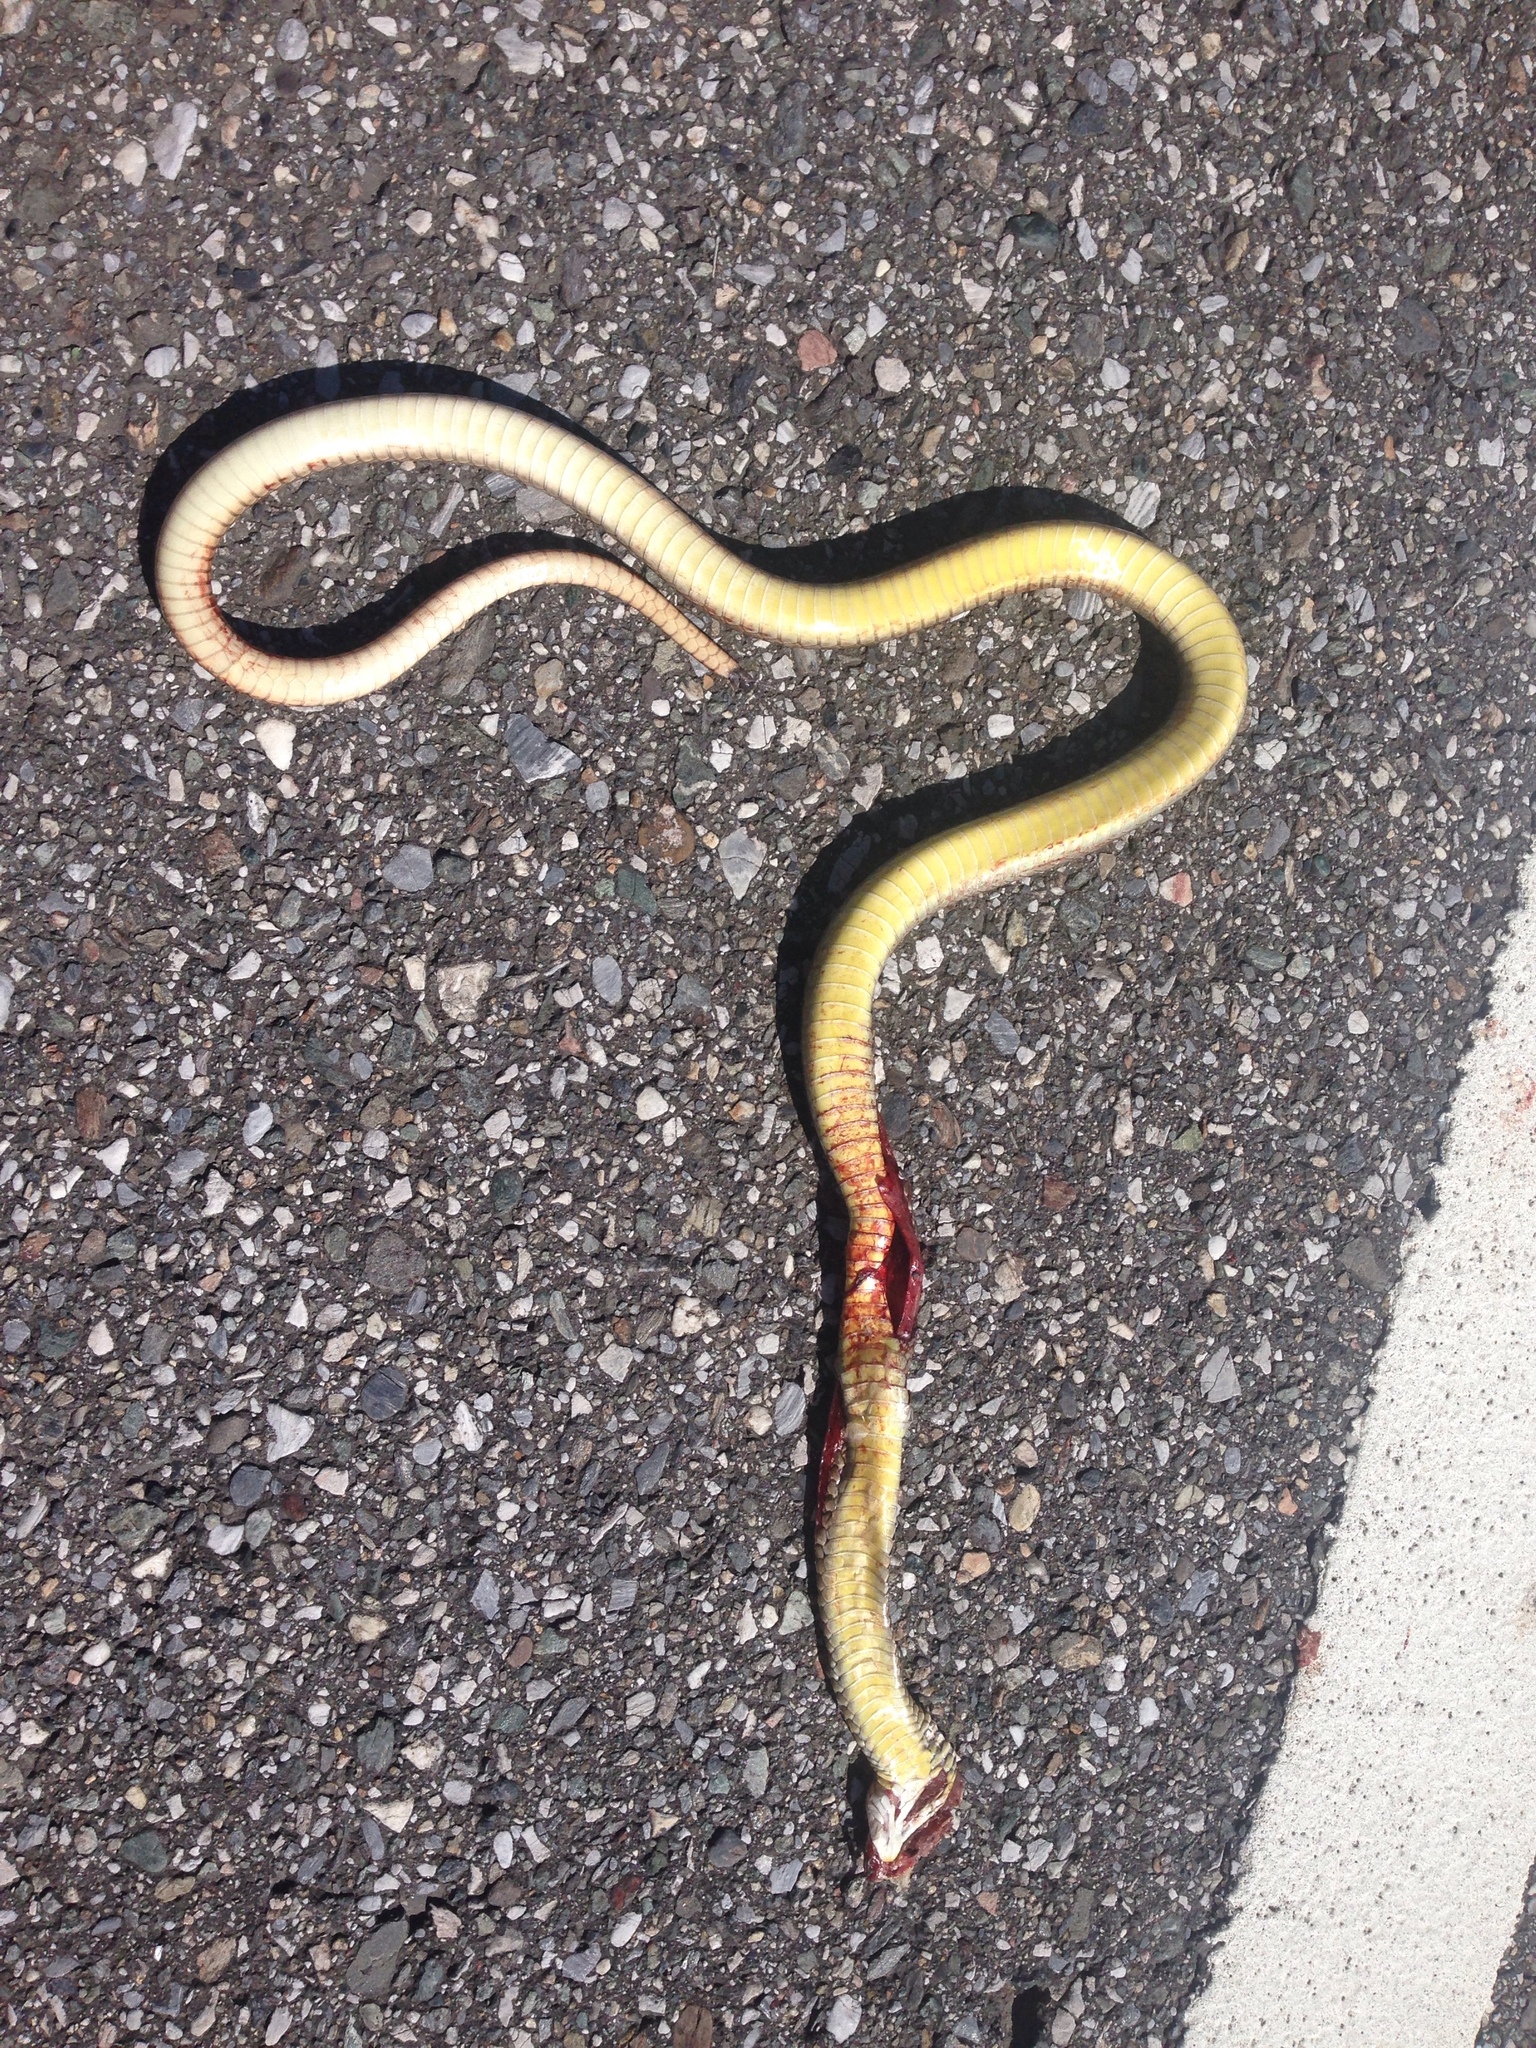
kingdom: Animalia
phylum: Chordata
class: Squamata
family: Colubridae
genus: Ptyas
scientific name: Ptyas korros
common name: Indo-chinese rat snake
